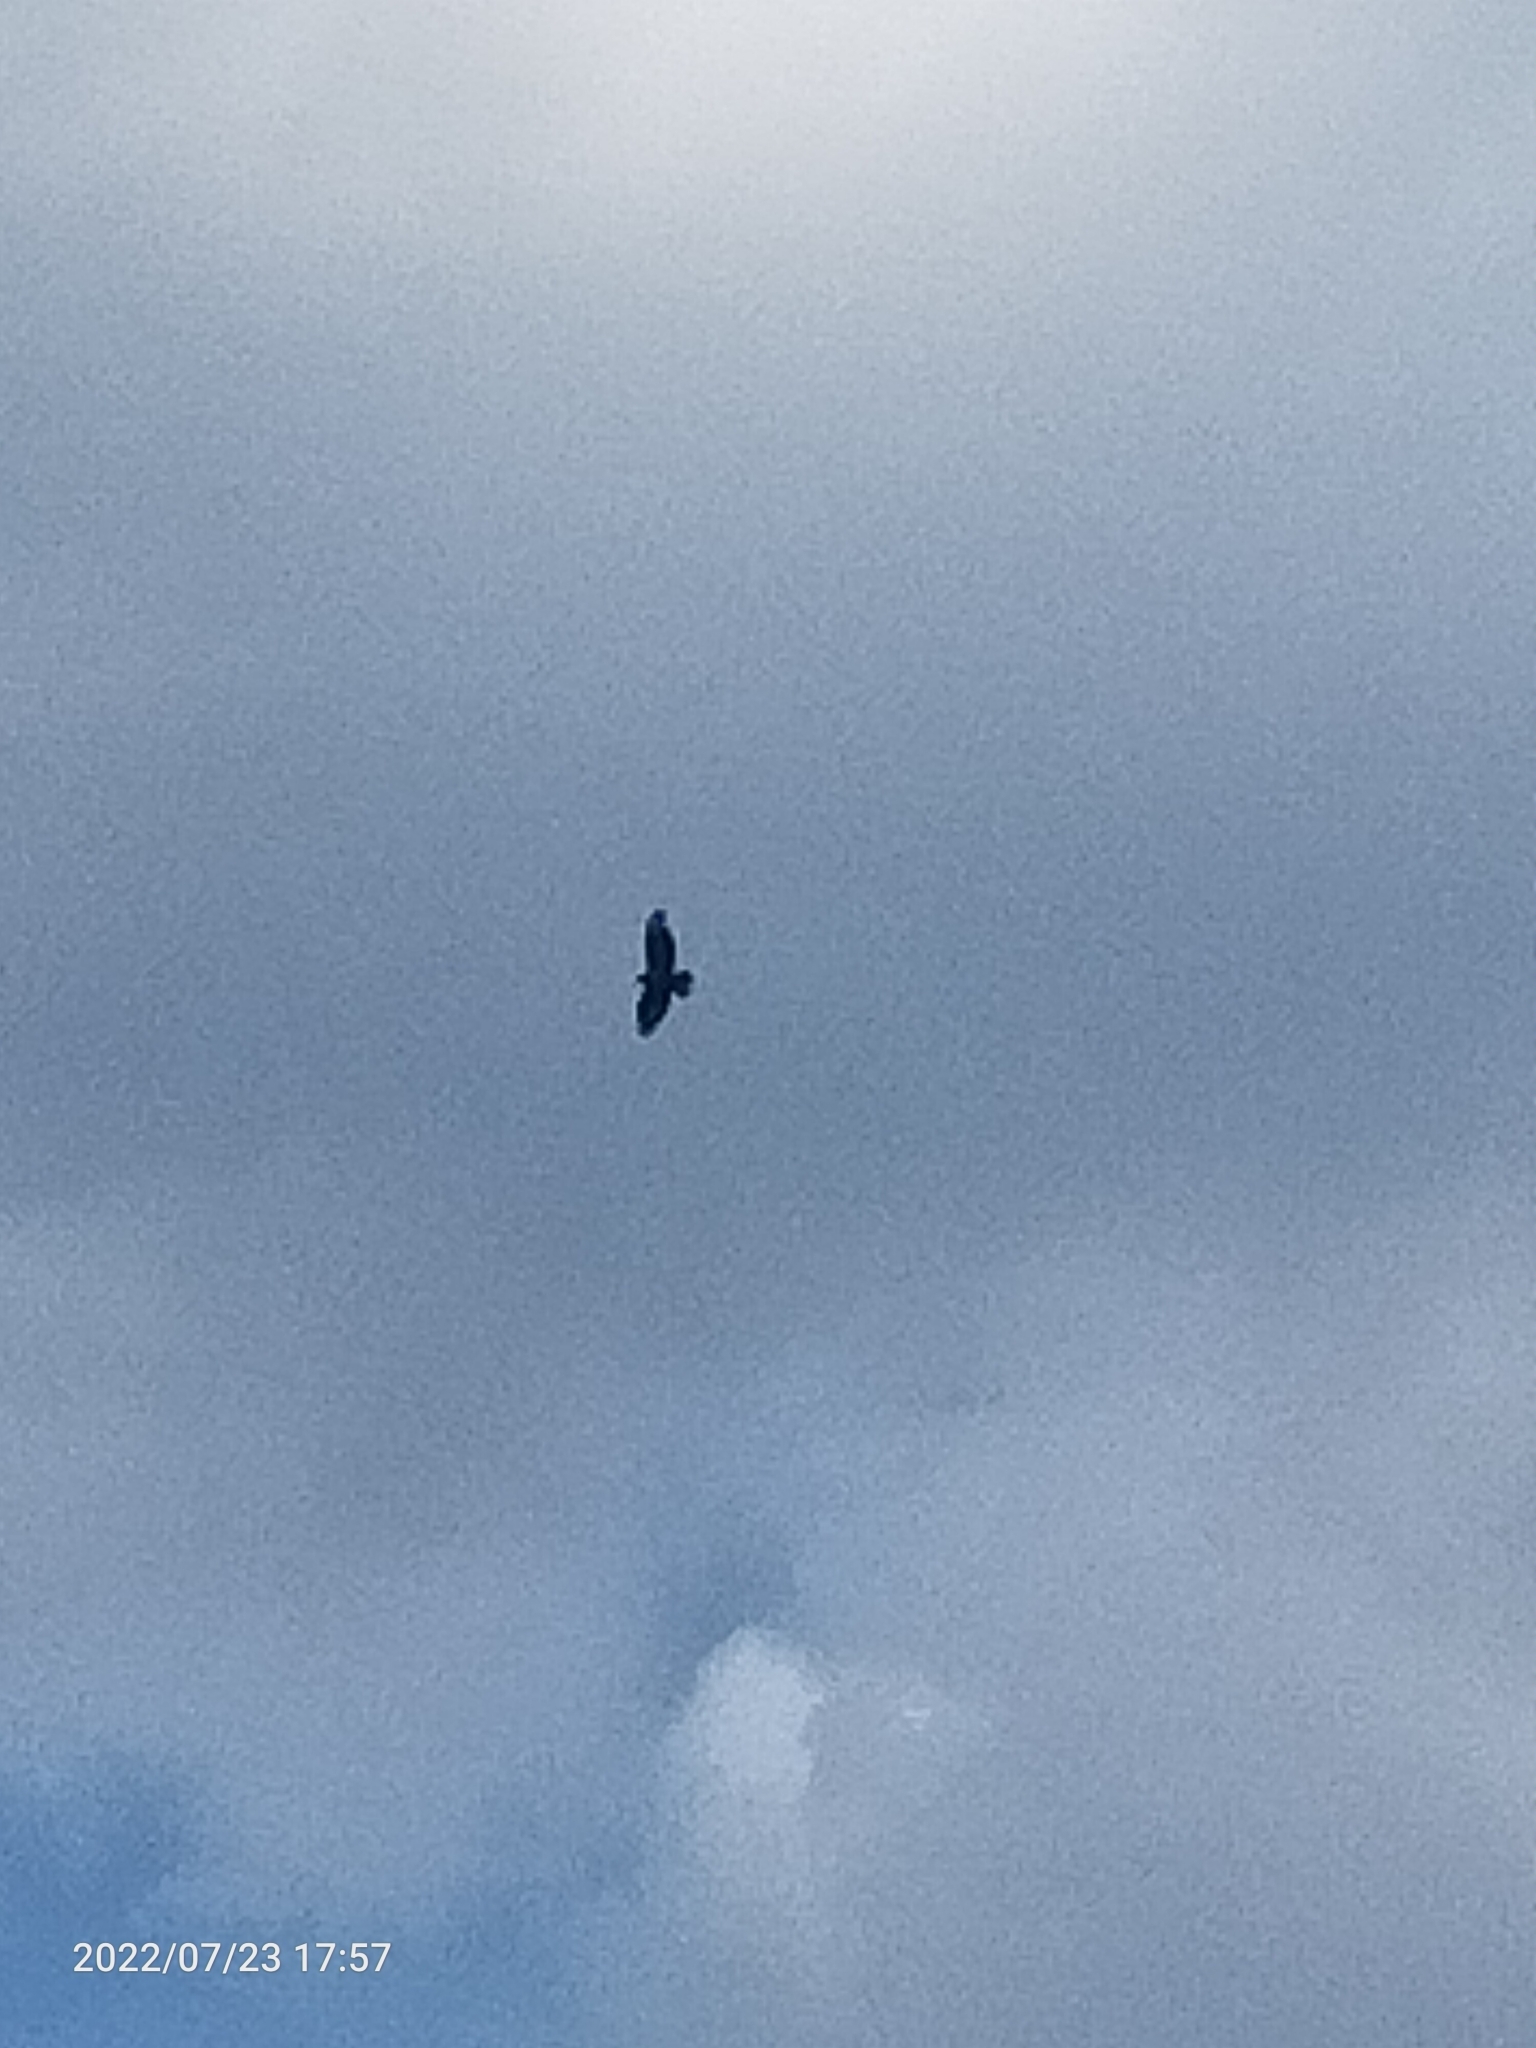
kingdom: Animalia
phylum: Chordata
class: Aves
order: Accipitriformes
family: Accipitridae
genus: Buteo
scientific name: Buteo buteo
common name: Common buzzard
